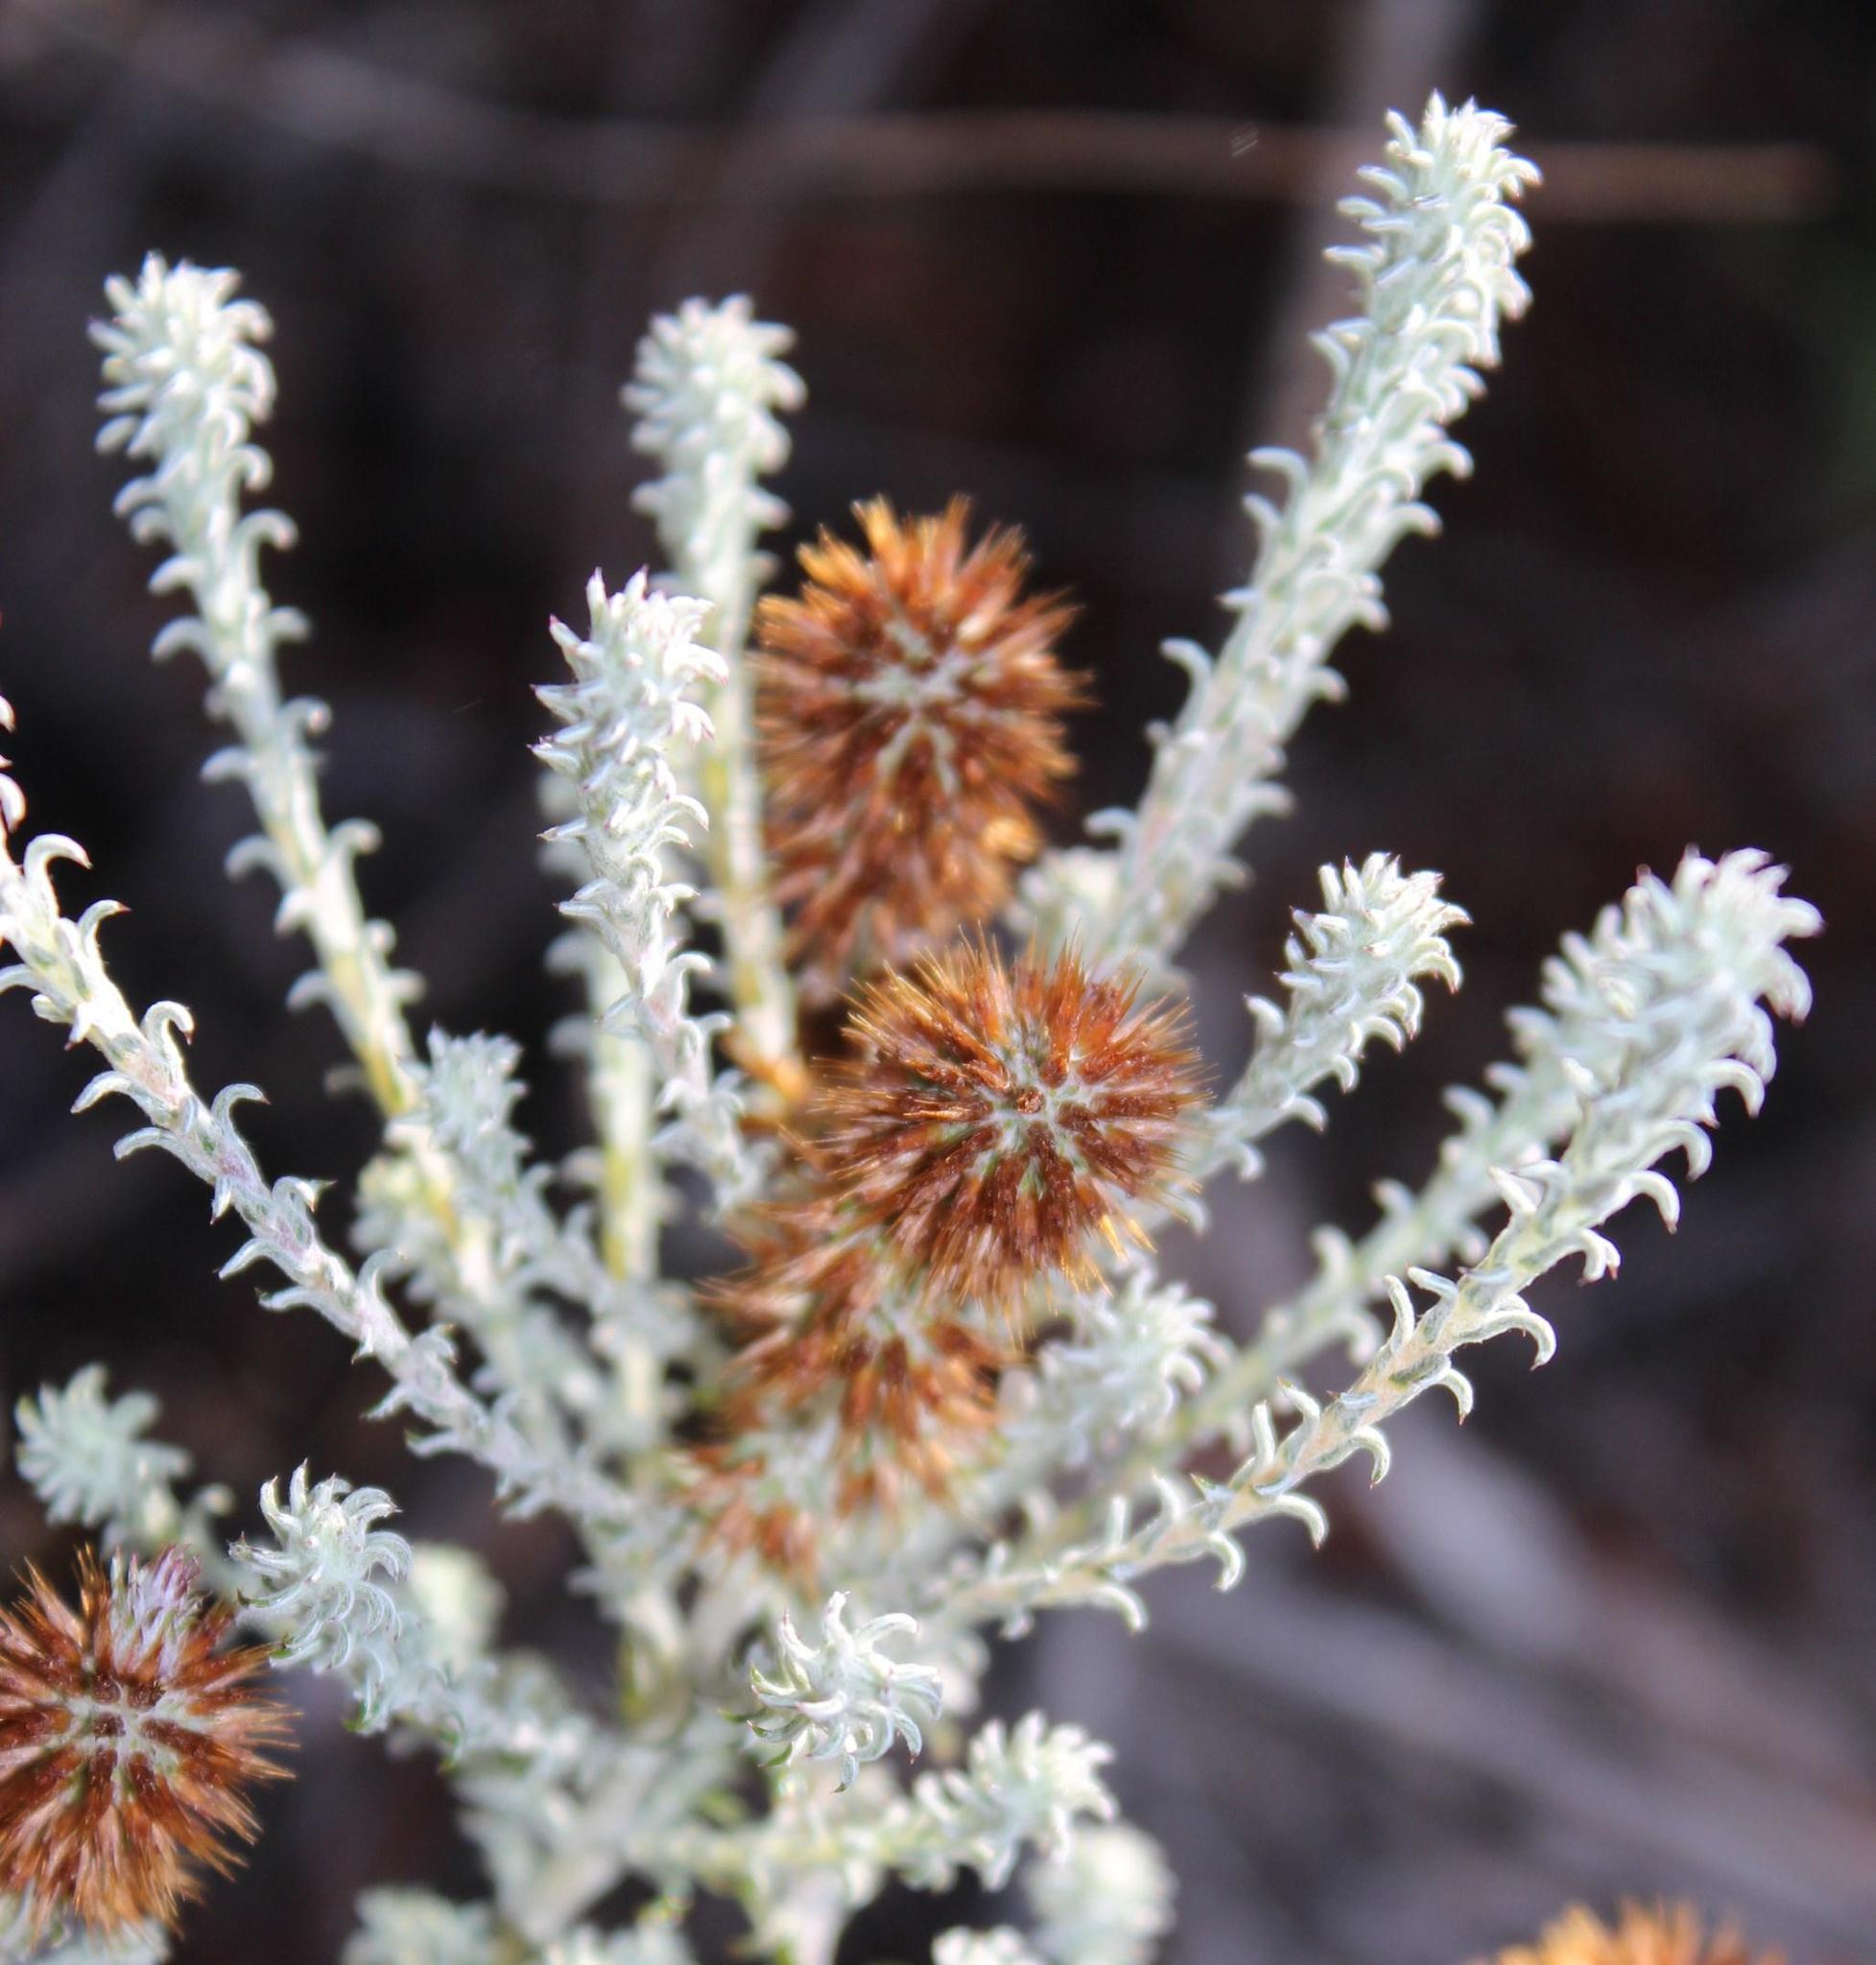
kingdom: Plantae
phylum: Tracheophyta
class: Magnoliopsida
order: Asterales
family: Asteraceae
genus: Seriphium
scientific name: Seriphium plumosum
